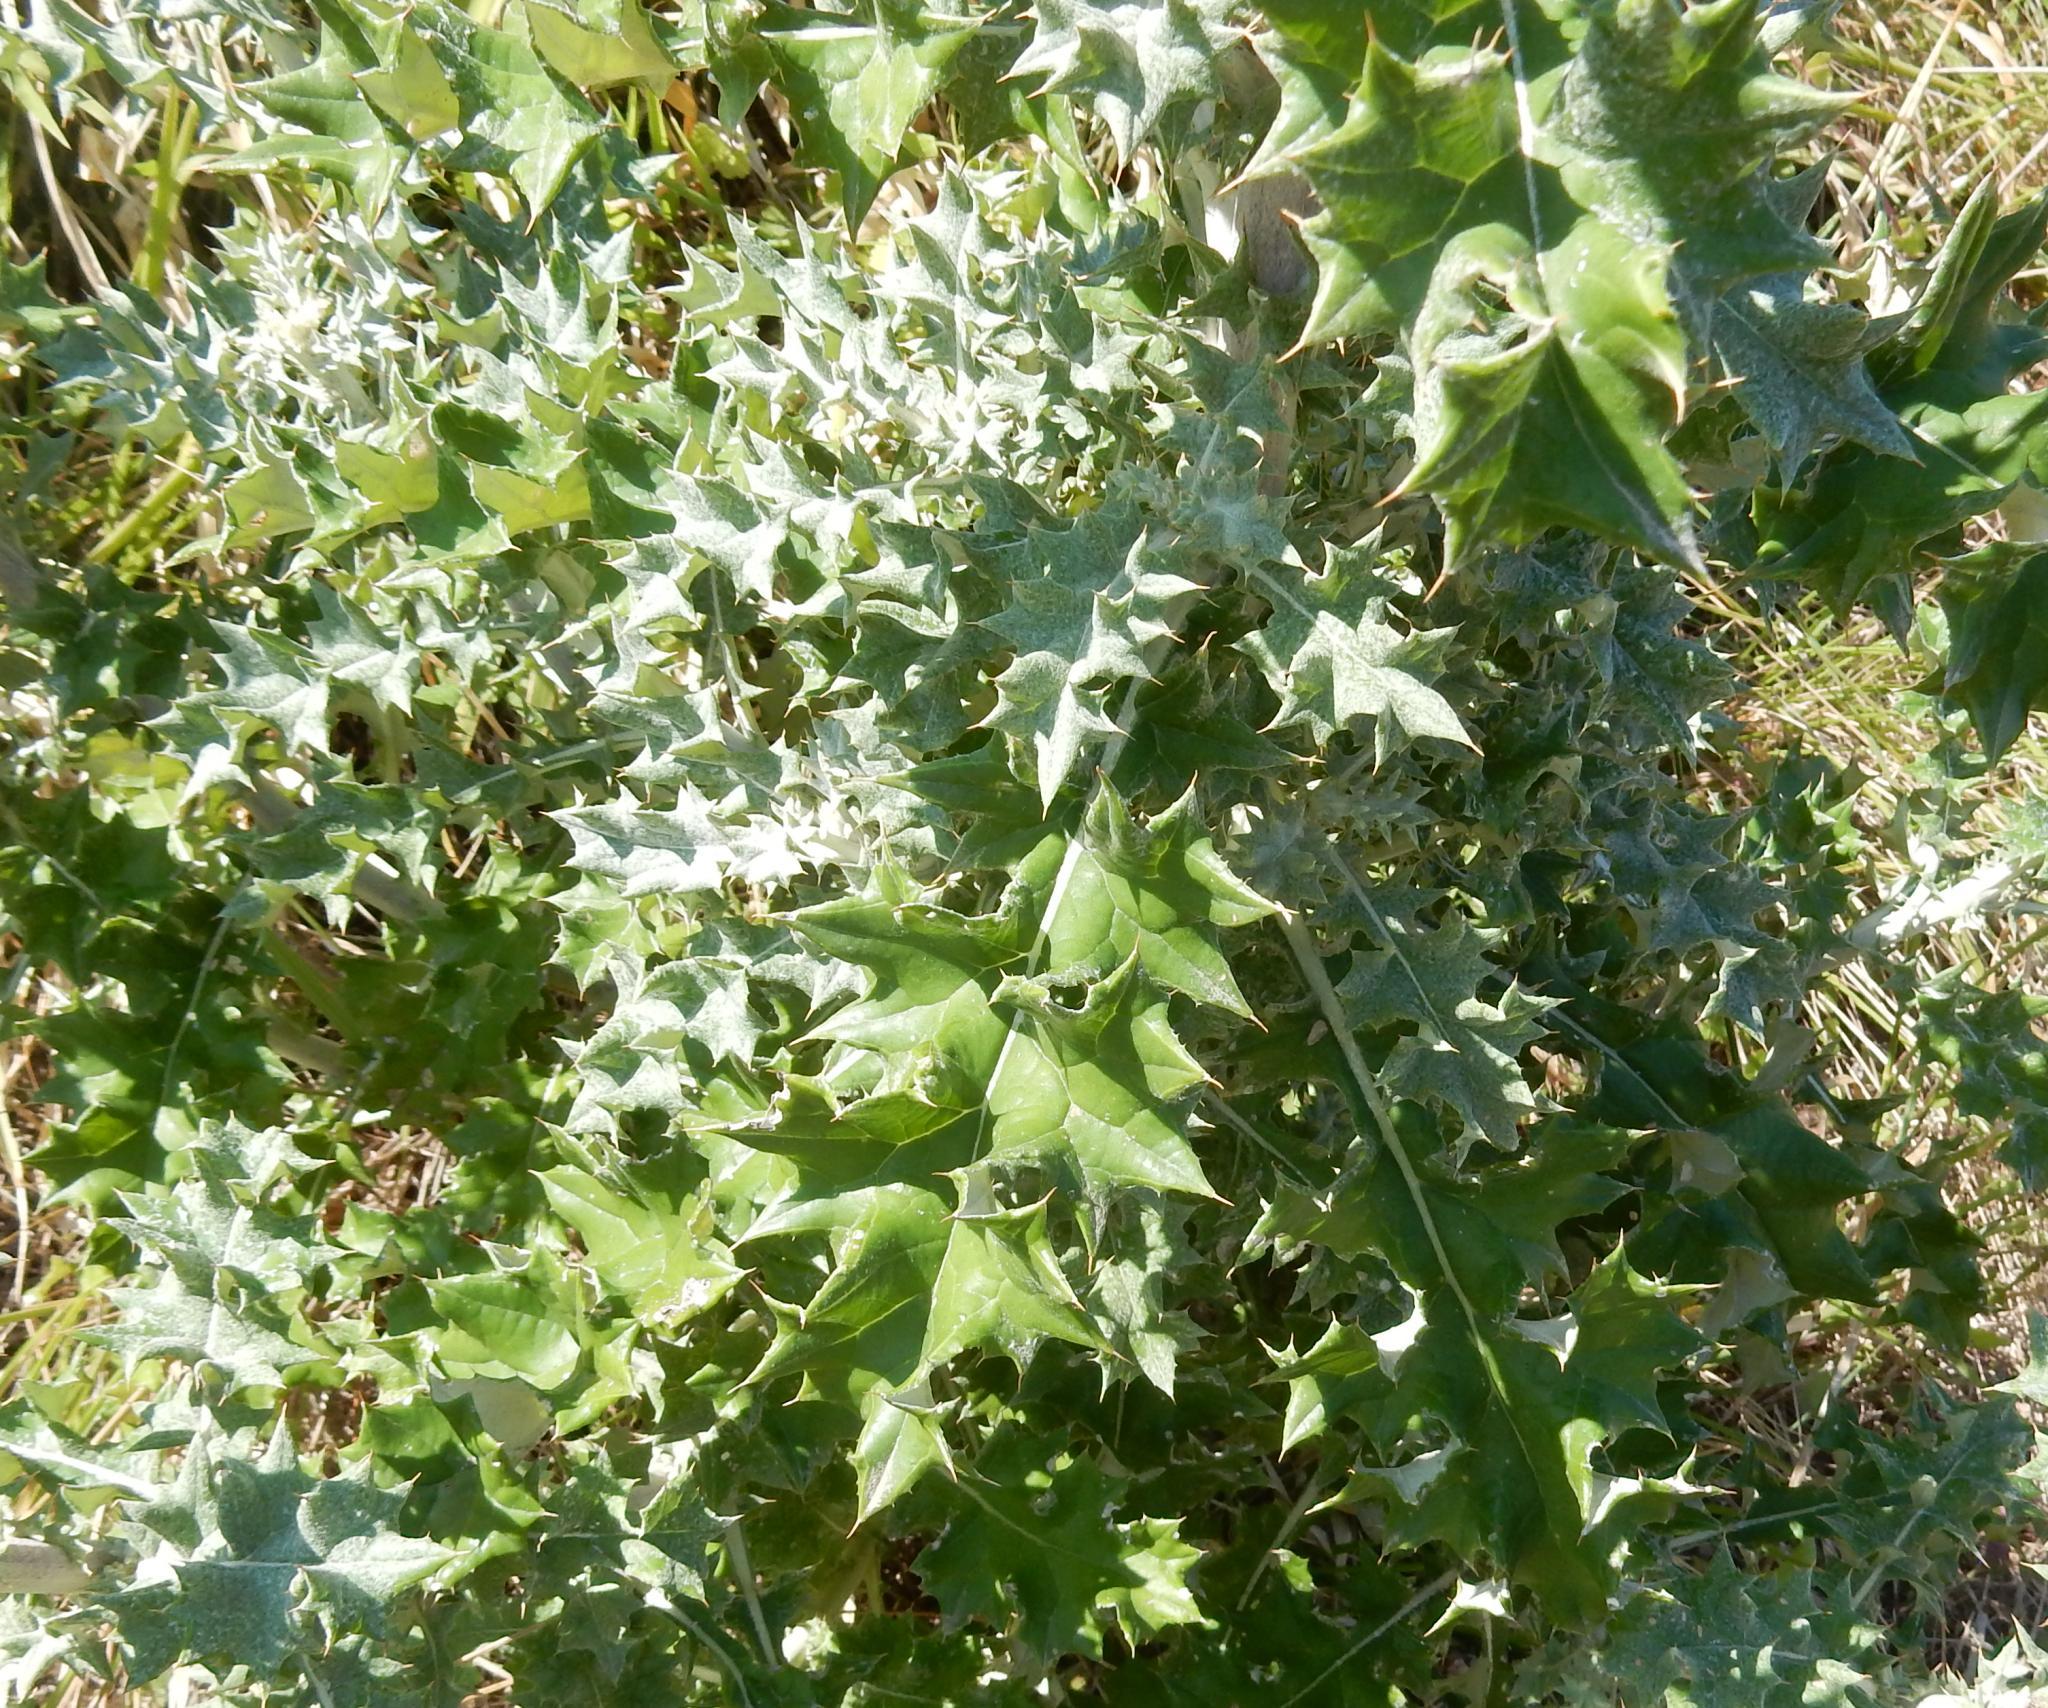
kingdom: Plantae
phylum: Tracheophyta
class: Magnoliopsida
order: Asterales
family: Asteraceae
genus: Berkheya
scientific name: Berkheya heterophylla
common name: Prickly gousblom
